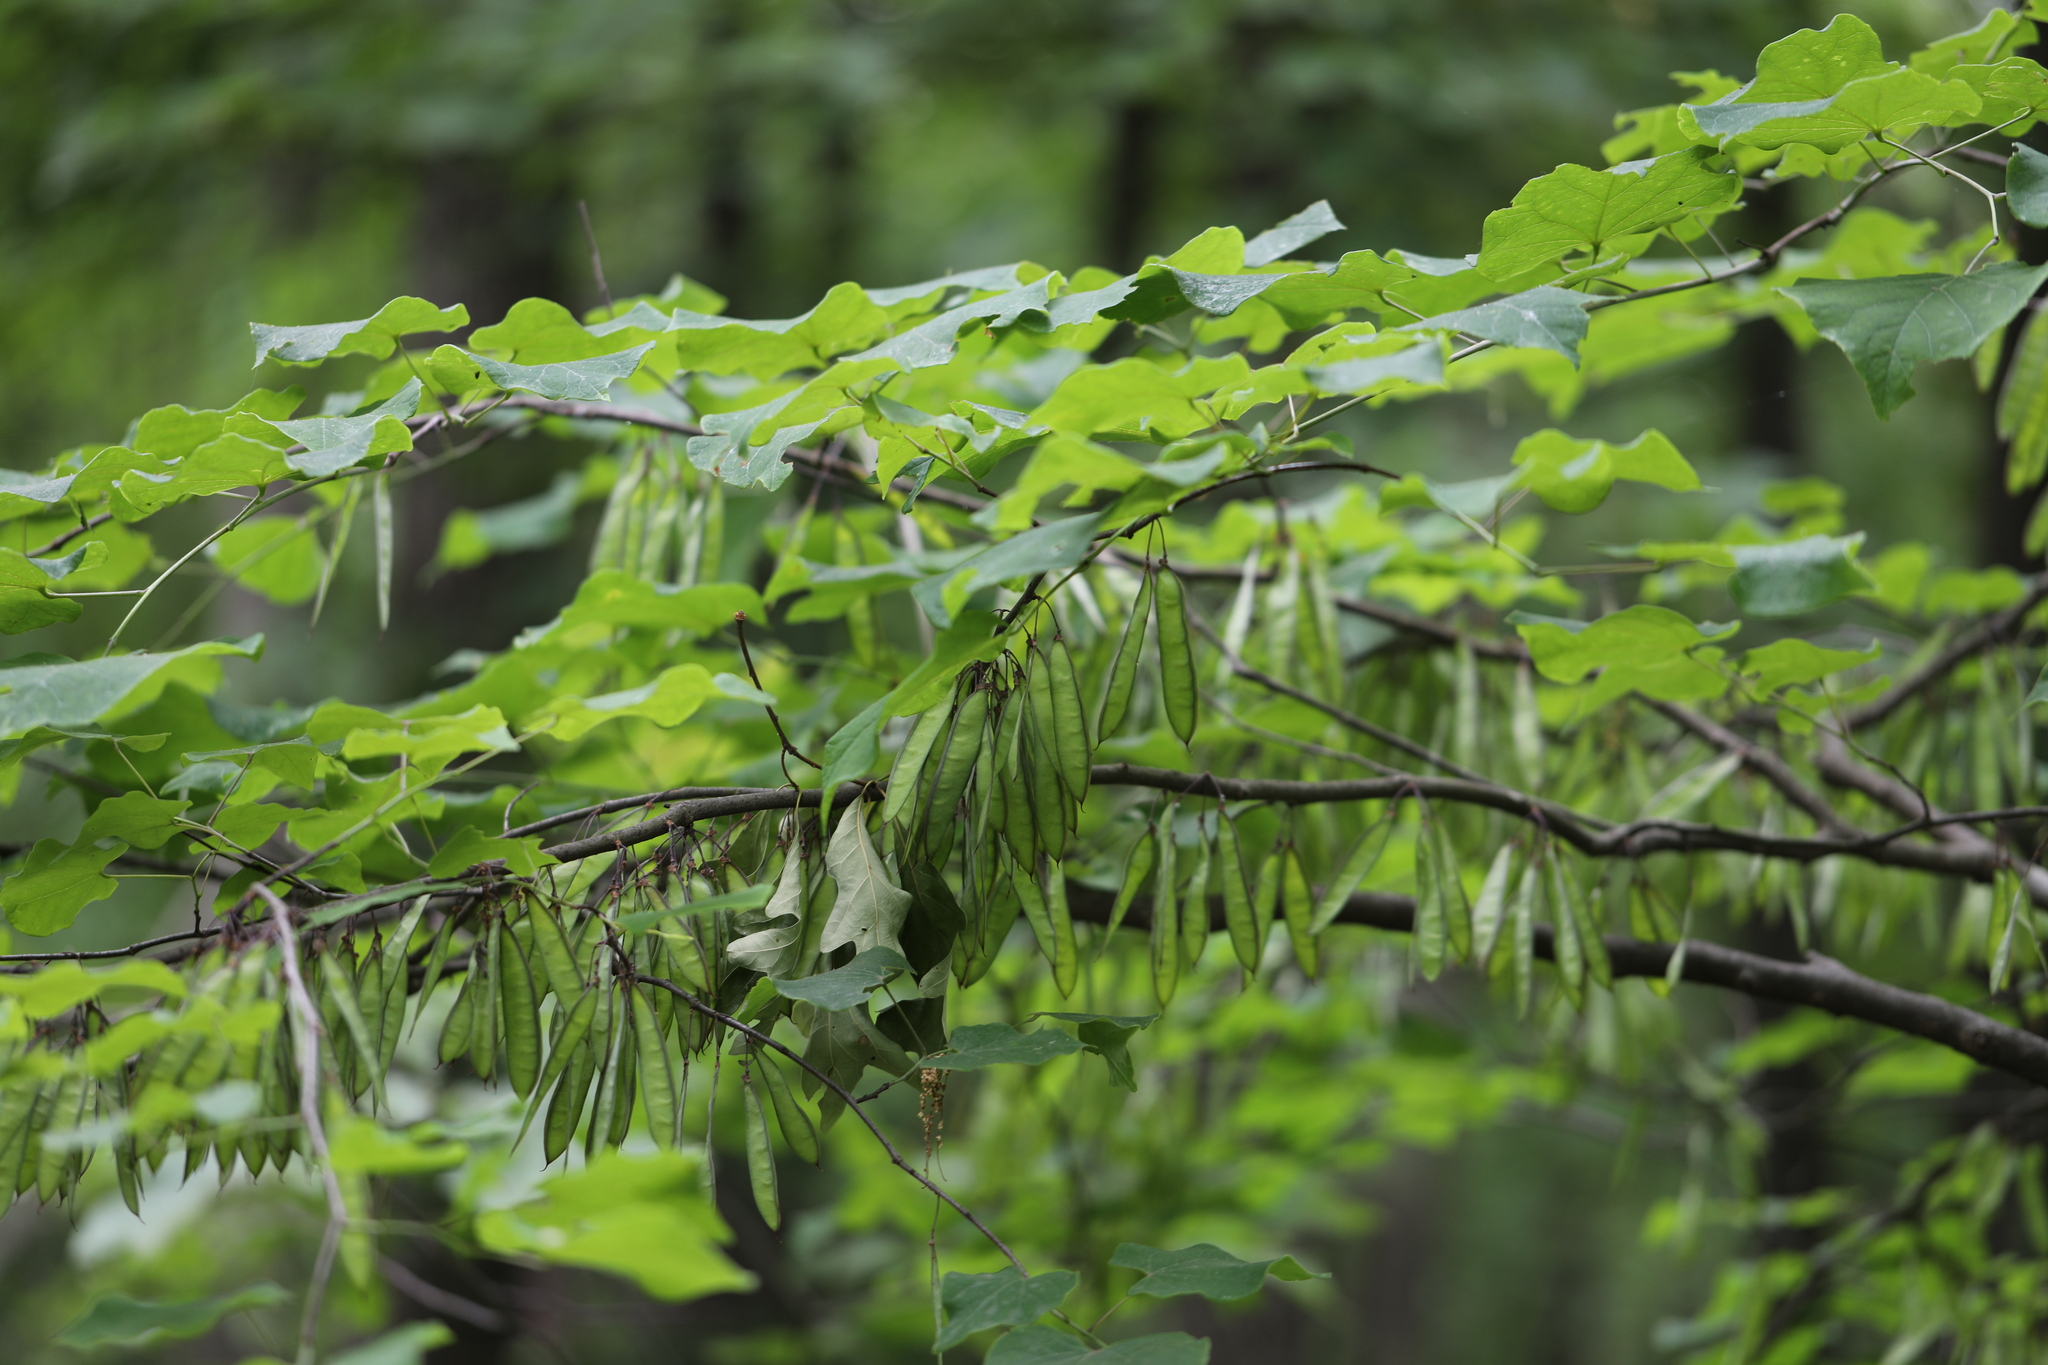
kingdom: Plantae
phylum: Tracheophyta
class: Magnoliopsida
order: Fabales
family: Fabaceae
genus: Cercis
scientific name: Cercis canadensis
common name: Eastern redbud
